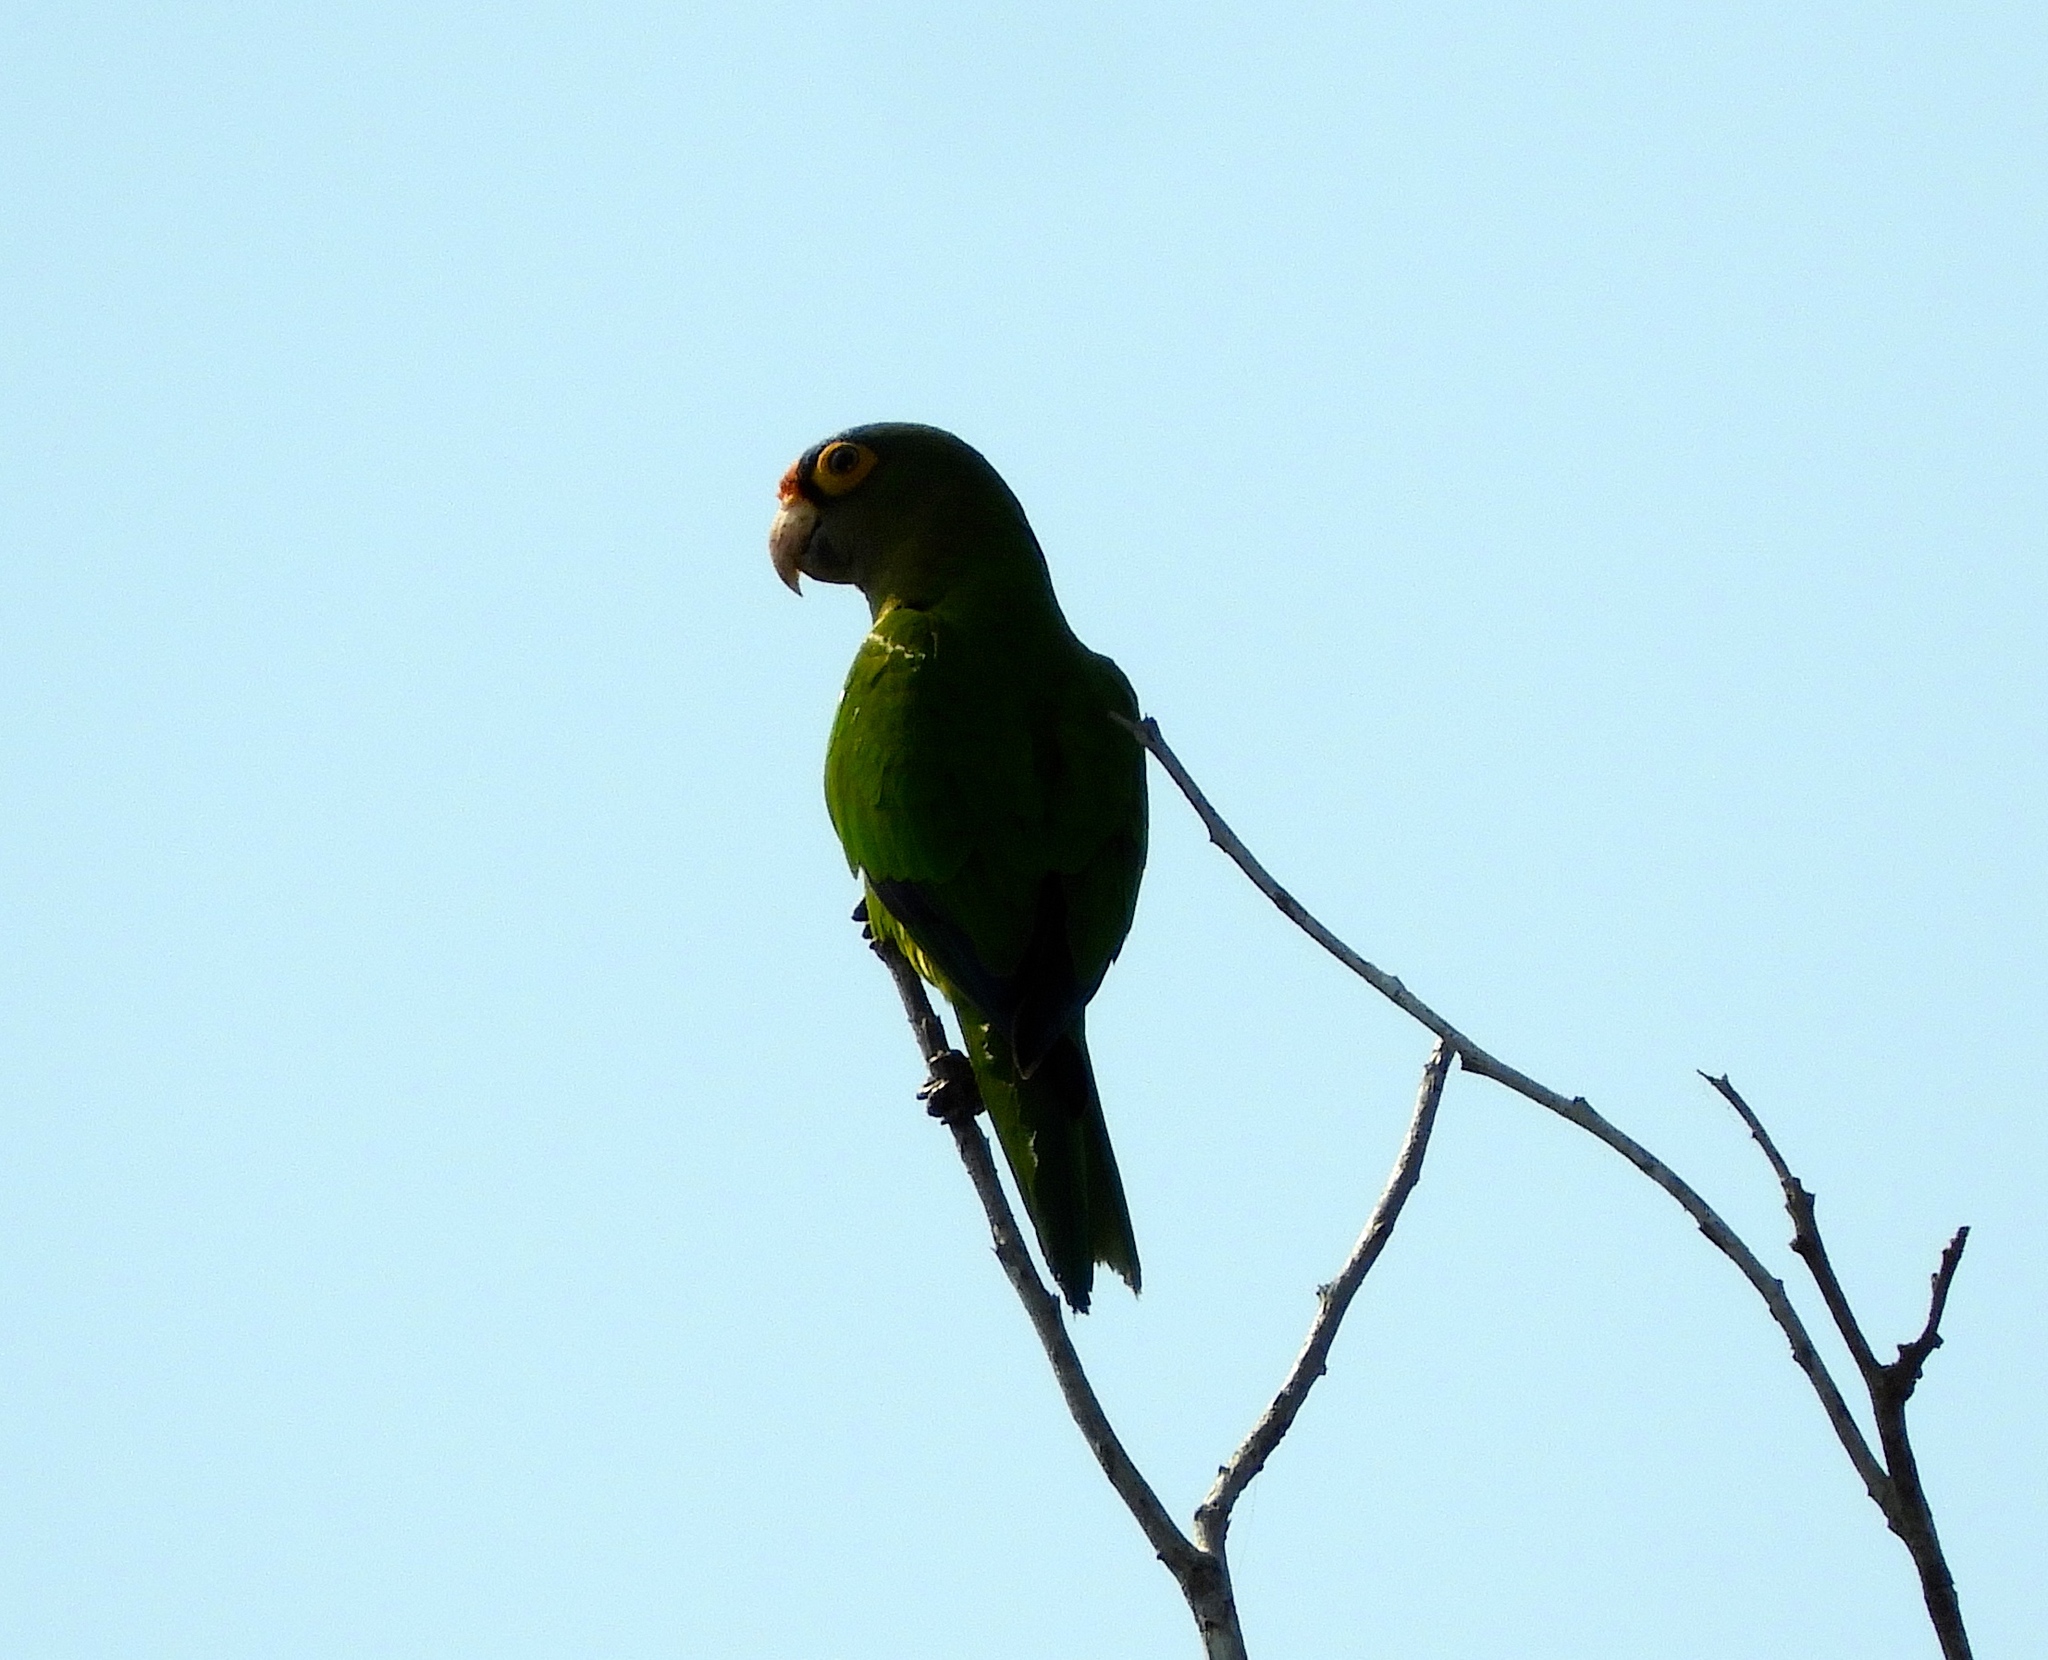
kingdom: Animalia
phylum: Chordata
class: Aves
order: Psittaciformes
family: Psittacidae
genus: Aratinga
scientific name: Aratinga canicularis
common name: Orange-fronted parakeet
